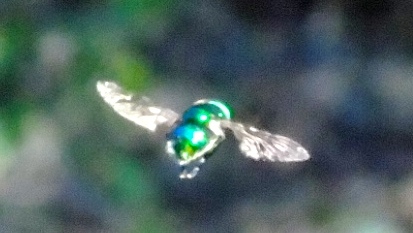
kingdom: Animalia
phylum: Arthropoda
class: Insecta
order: Diptera
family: Syrphidae
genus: Ornidia
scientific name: Ornidia
